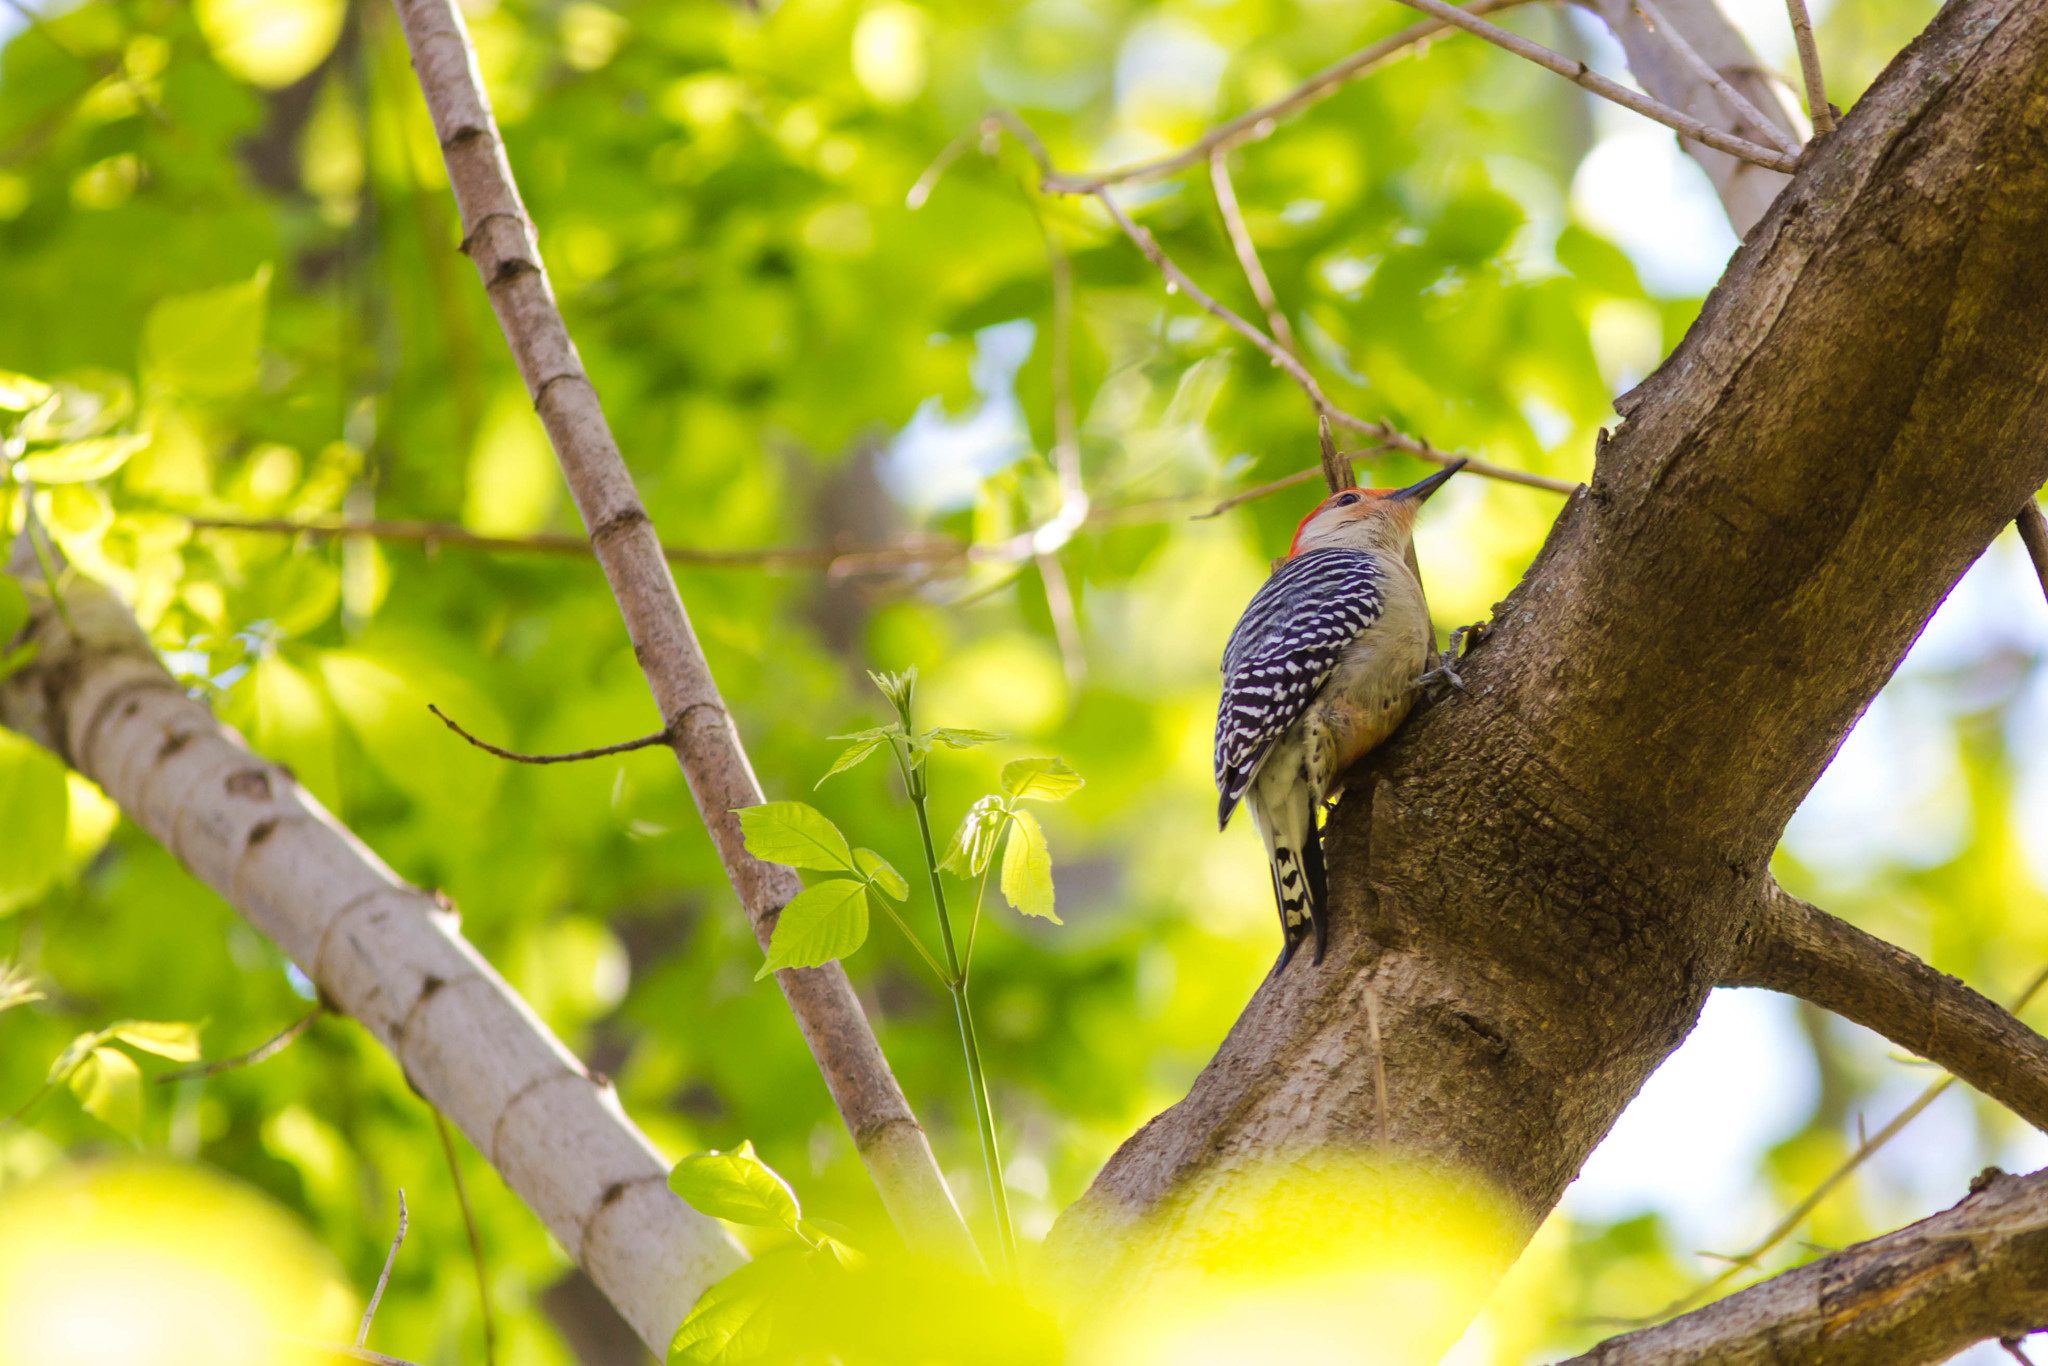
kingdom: Animalia
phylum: Chordata
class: Aves
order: Piciformes
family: Picidae
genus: Melanerpes
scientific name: Melanerpes carolinus
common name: Red-bellied woodpecker
